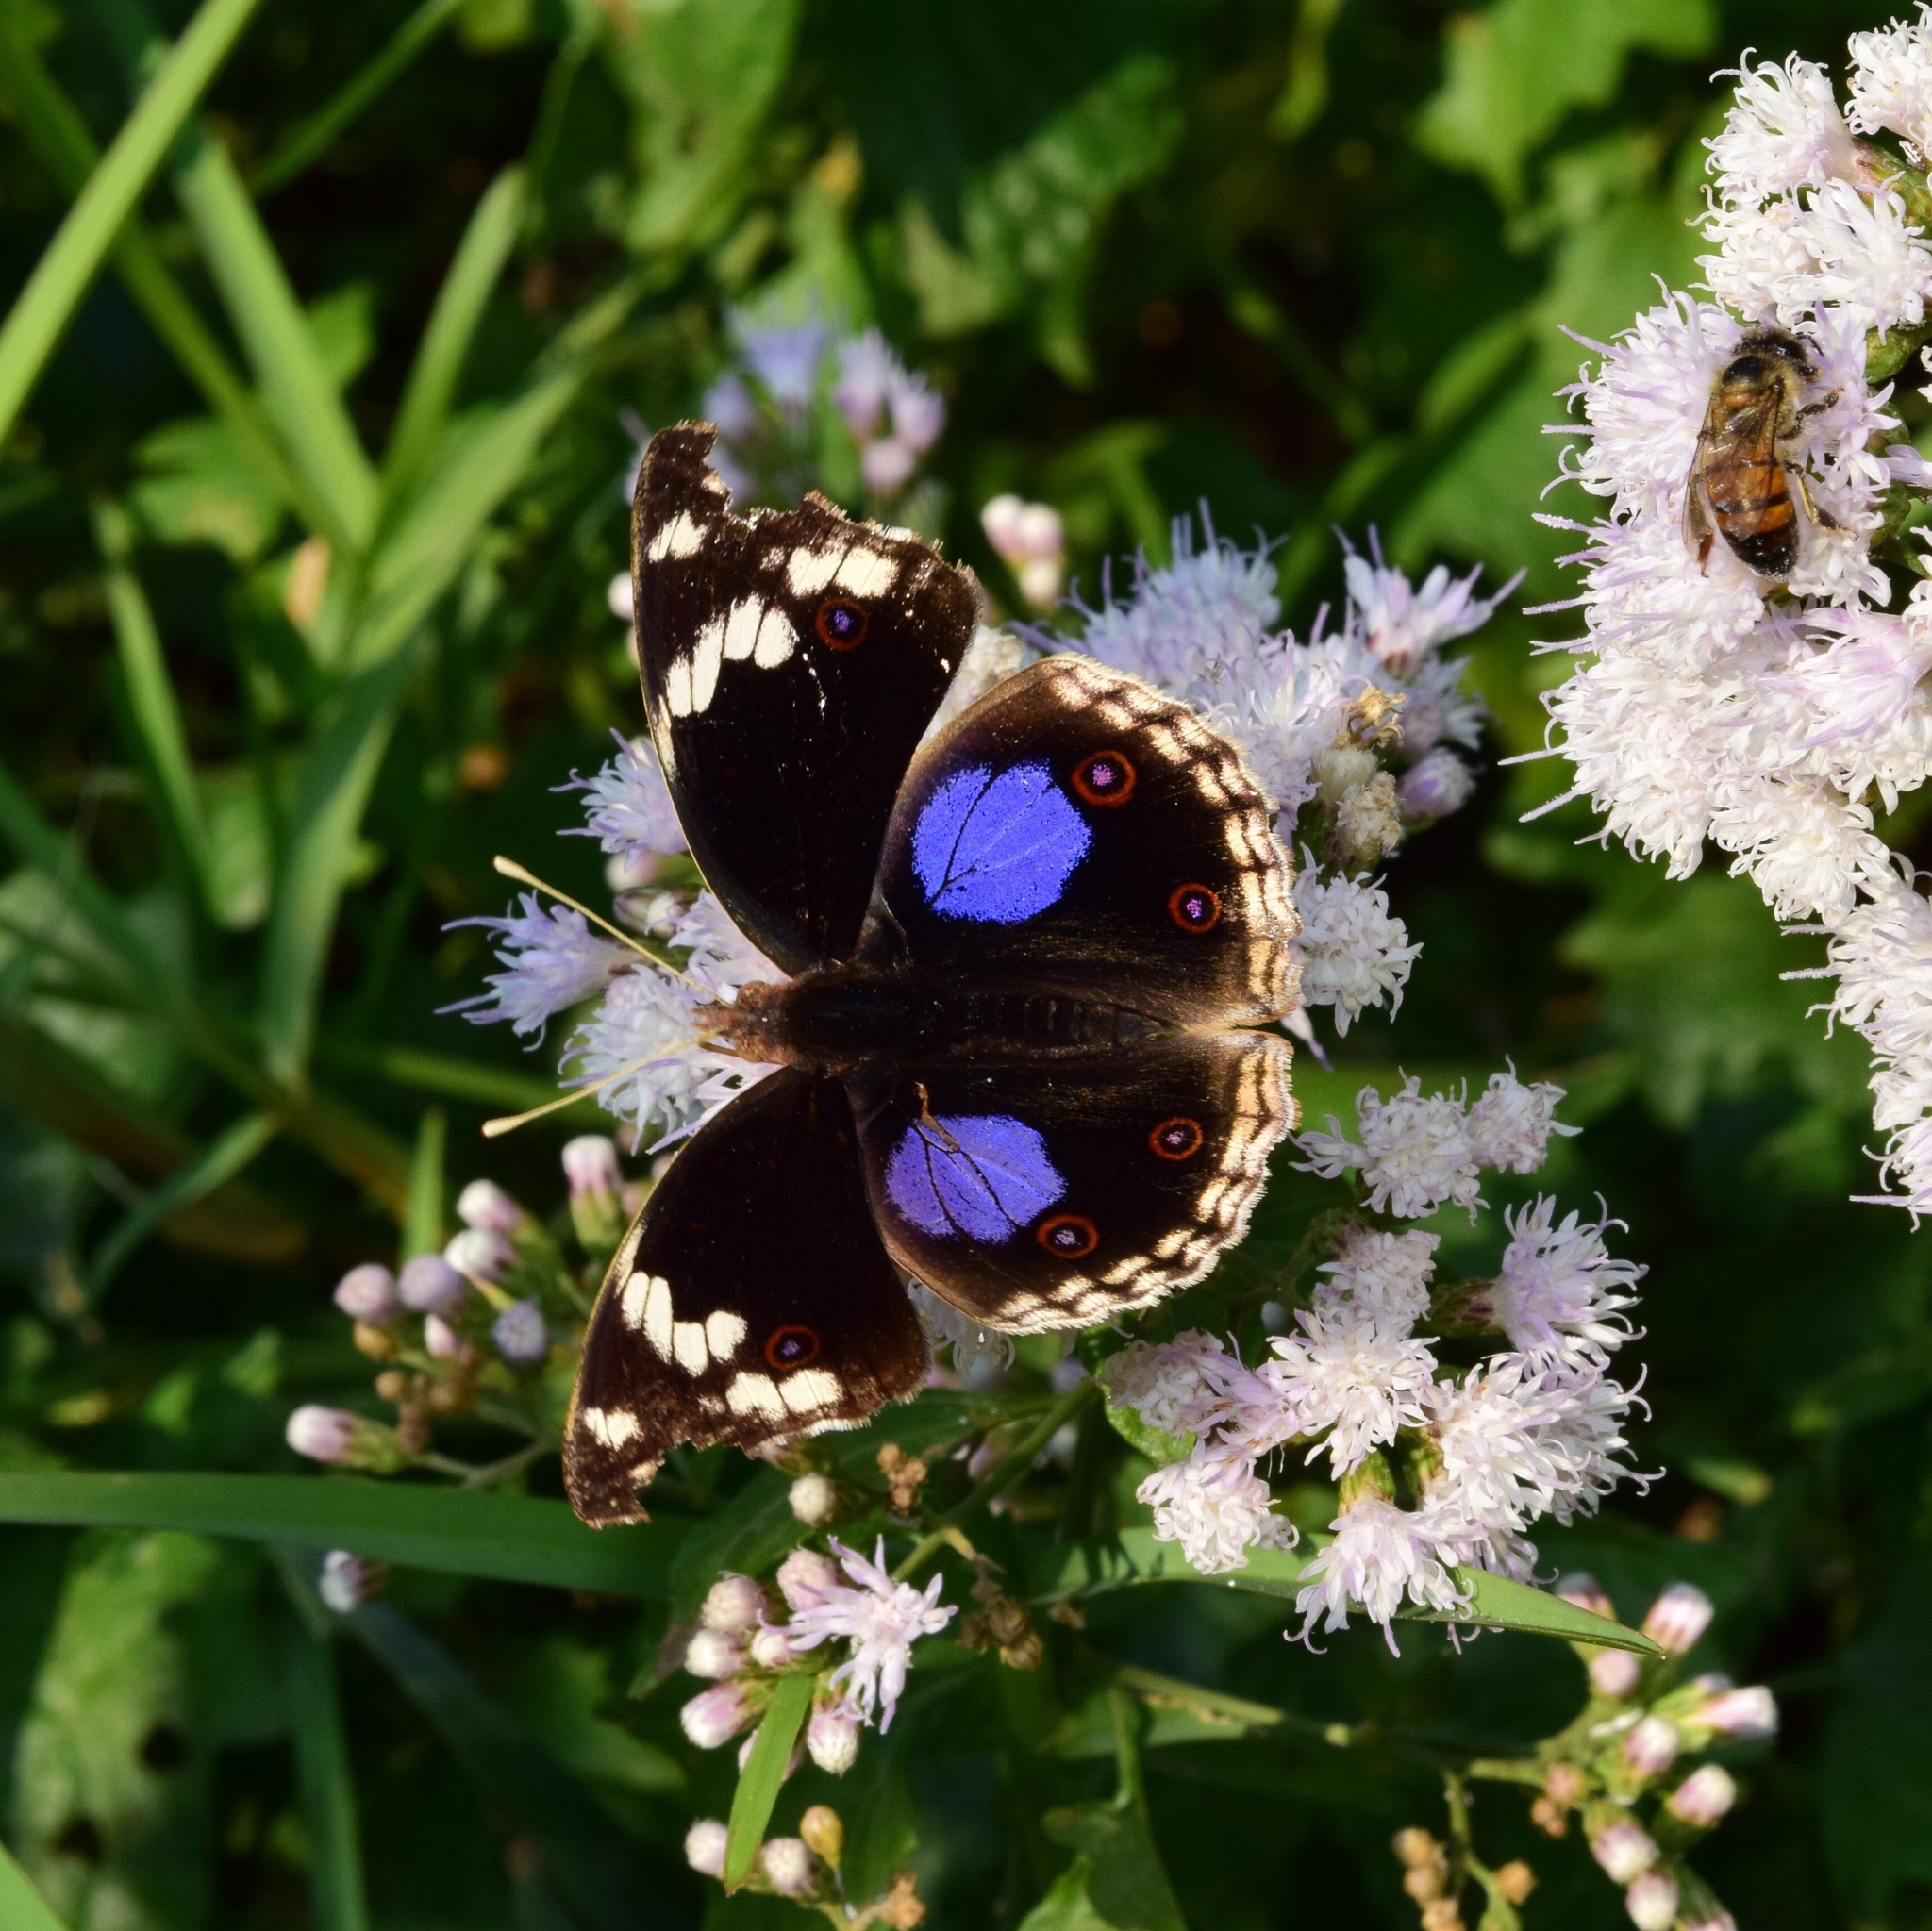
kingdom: Animalia
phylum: Arthropoda
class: Insecta
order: Lepidoptera
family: Nymphalidae
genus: Junonia
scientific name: Junonia oenone
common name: Dark blue pansy
